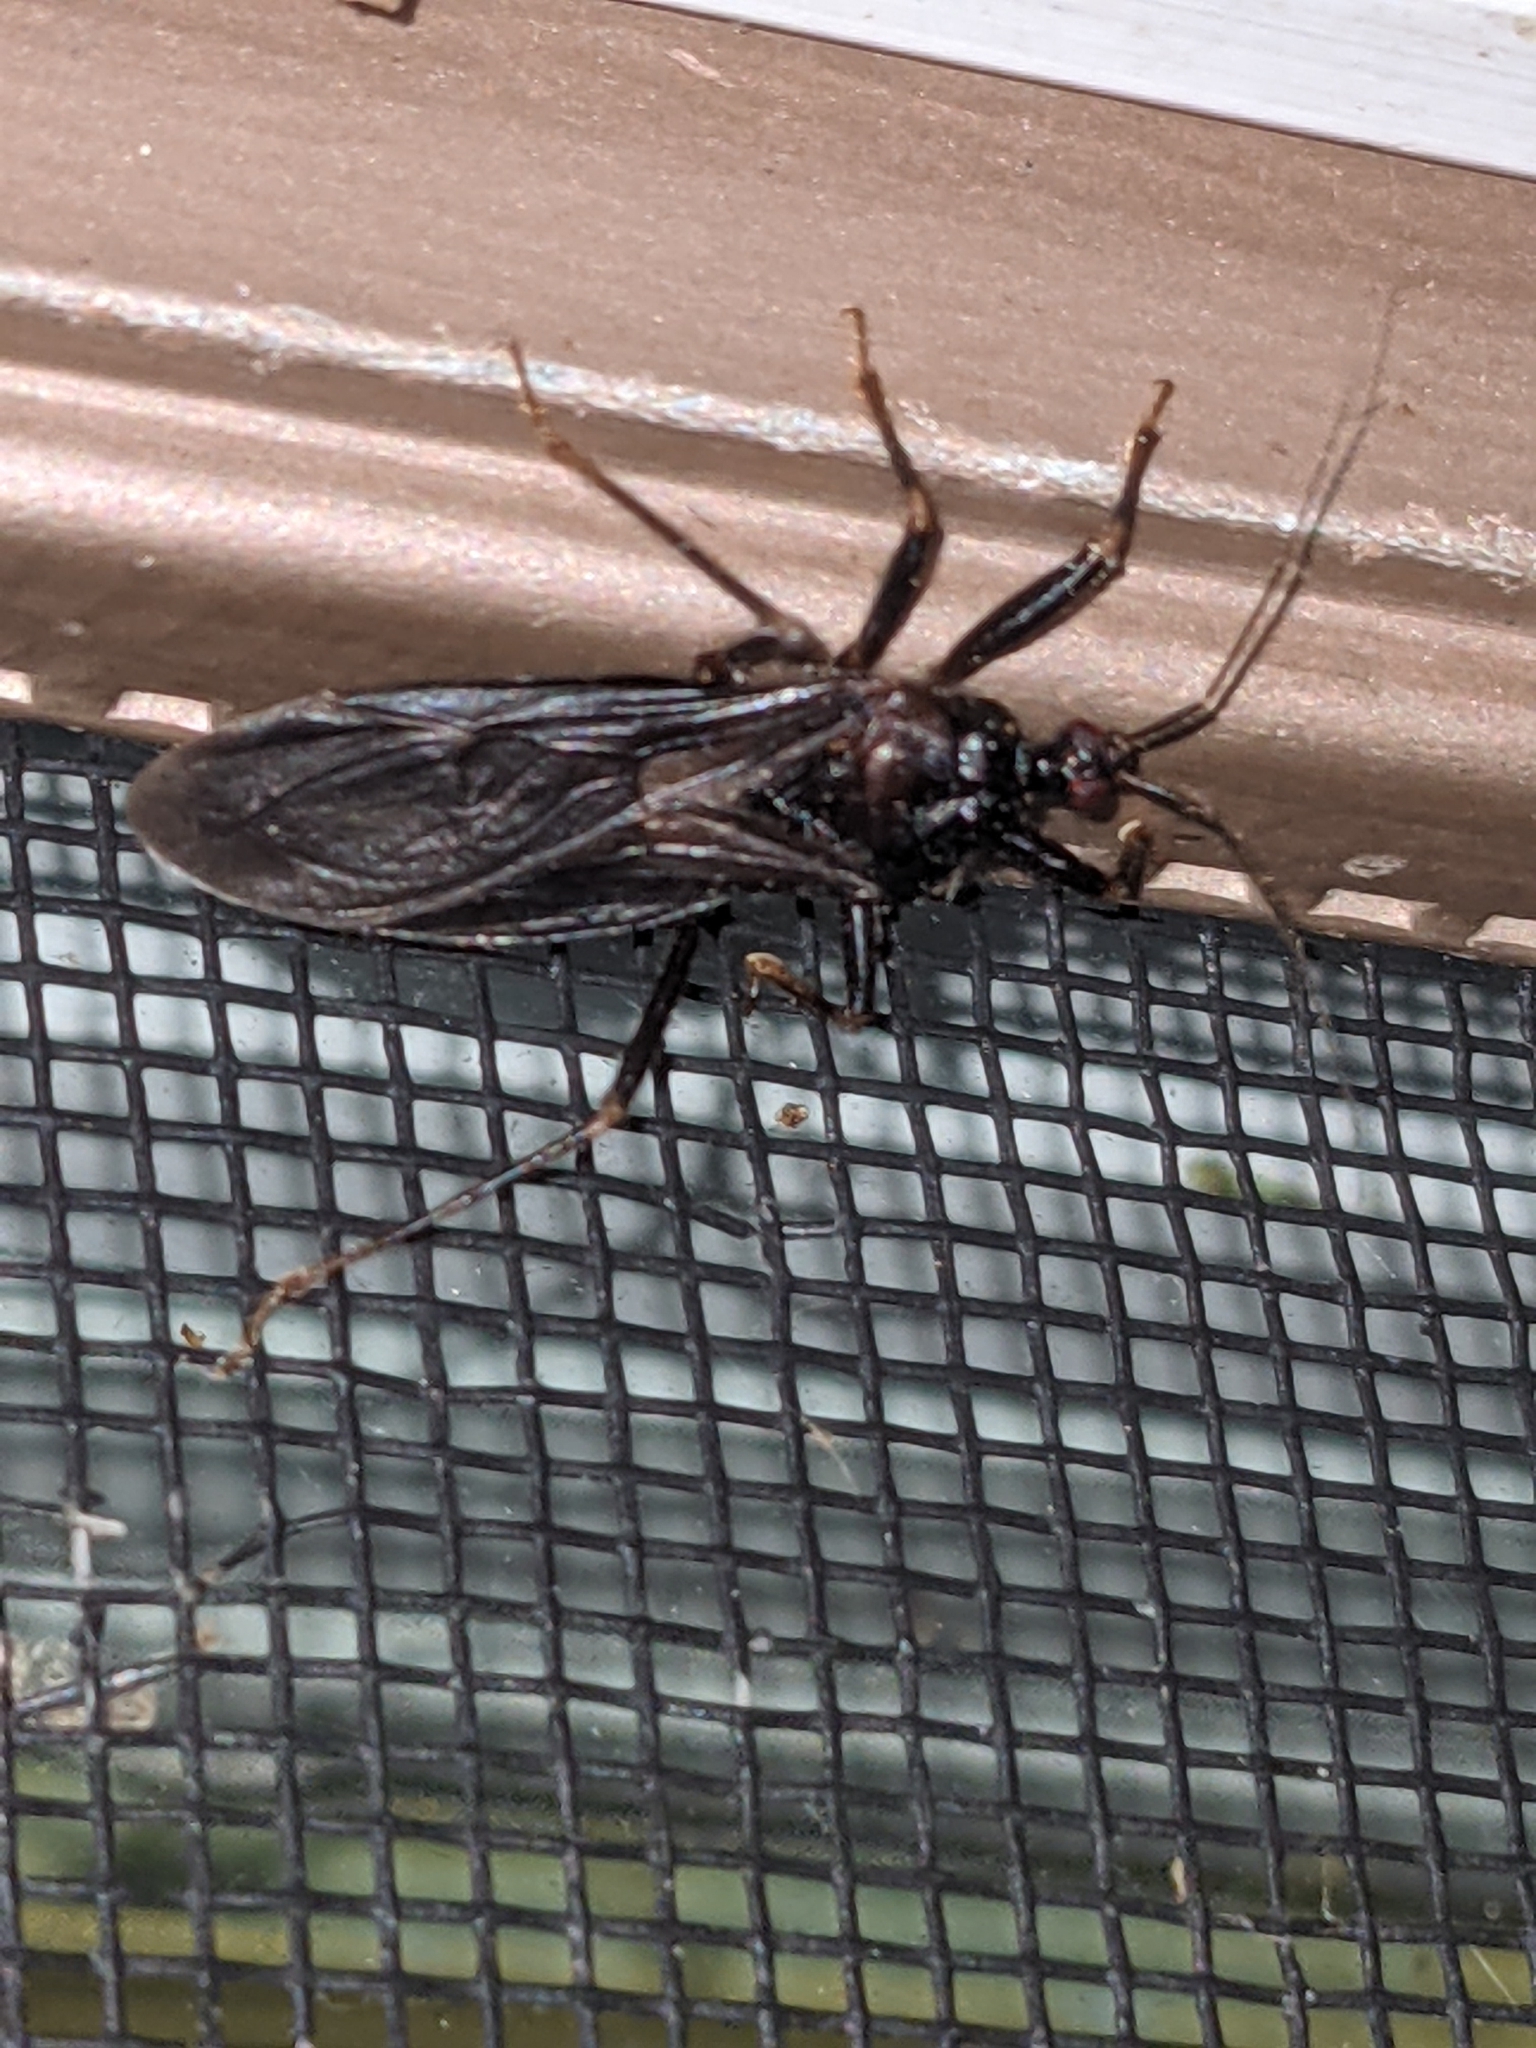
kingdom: Animalia
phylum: Arthropoda
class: Insecta
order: Hemiptera
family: Reduviidae
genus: Reduvius
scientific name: Reduvius personatus
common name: Masked hunter
